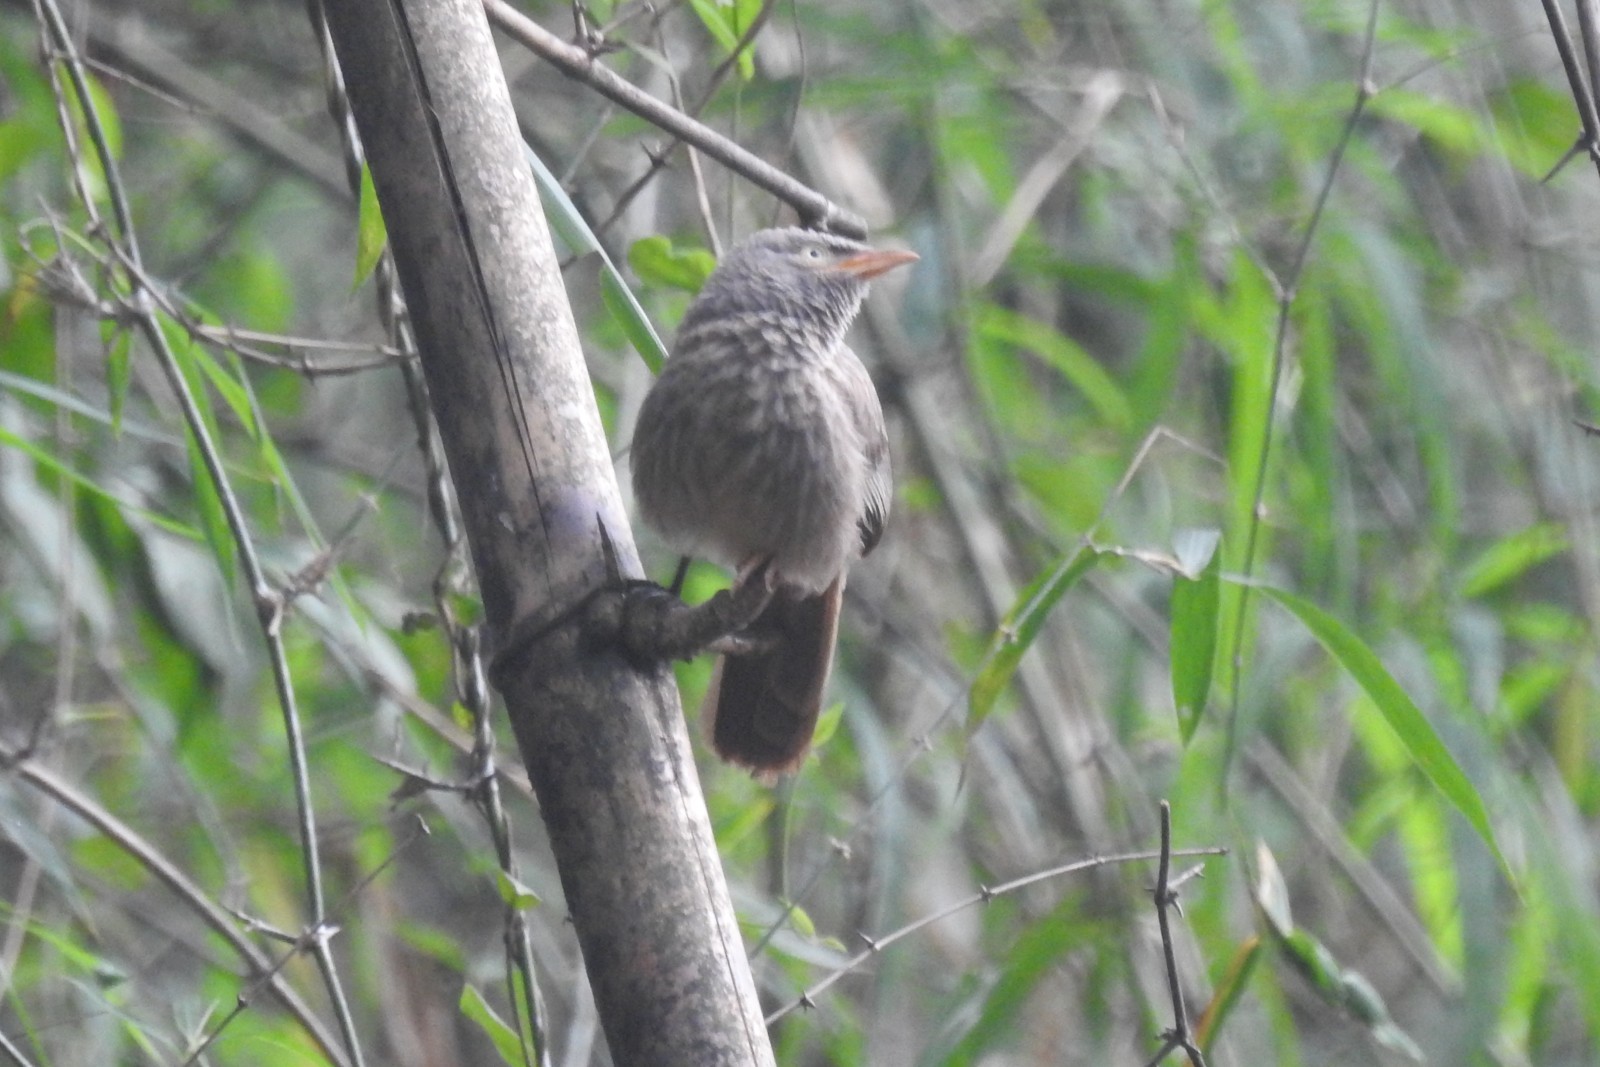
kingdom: Animalia
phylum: Chordata
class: Aves
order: Passeriformes
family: Leiothrichidae
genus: Turdoides
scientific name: Turdoides striata
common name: Jungle babbler
